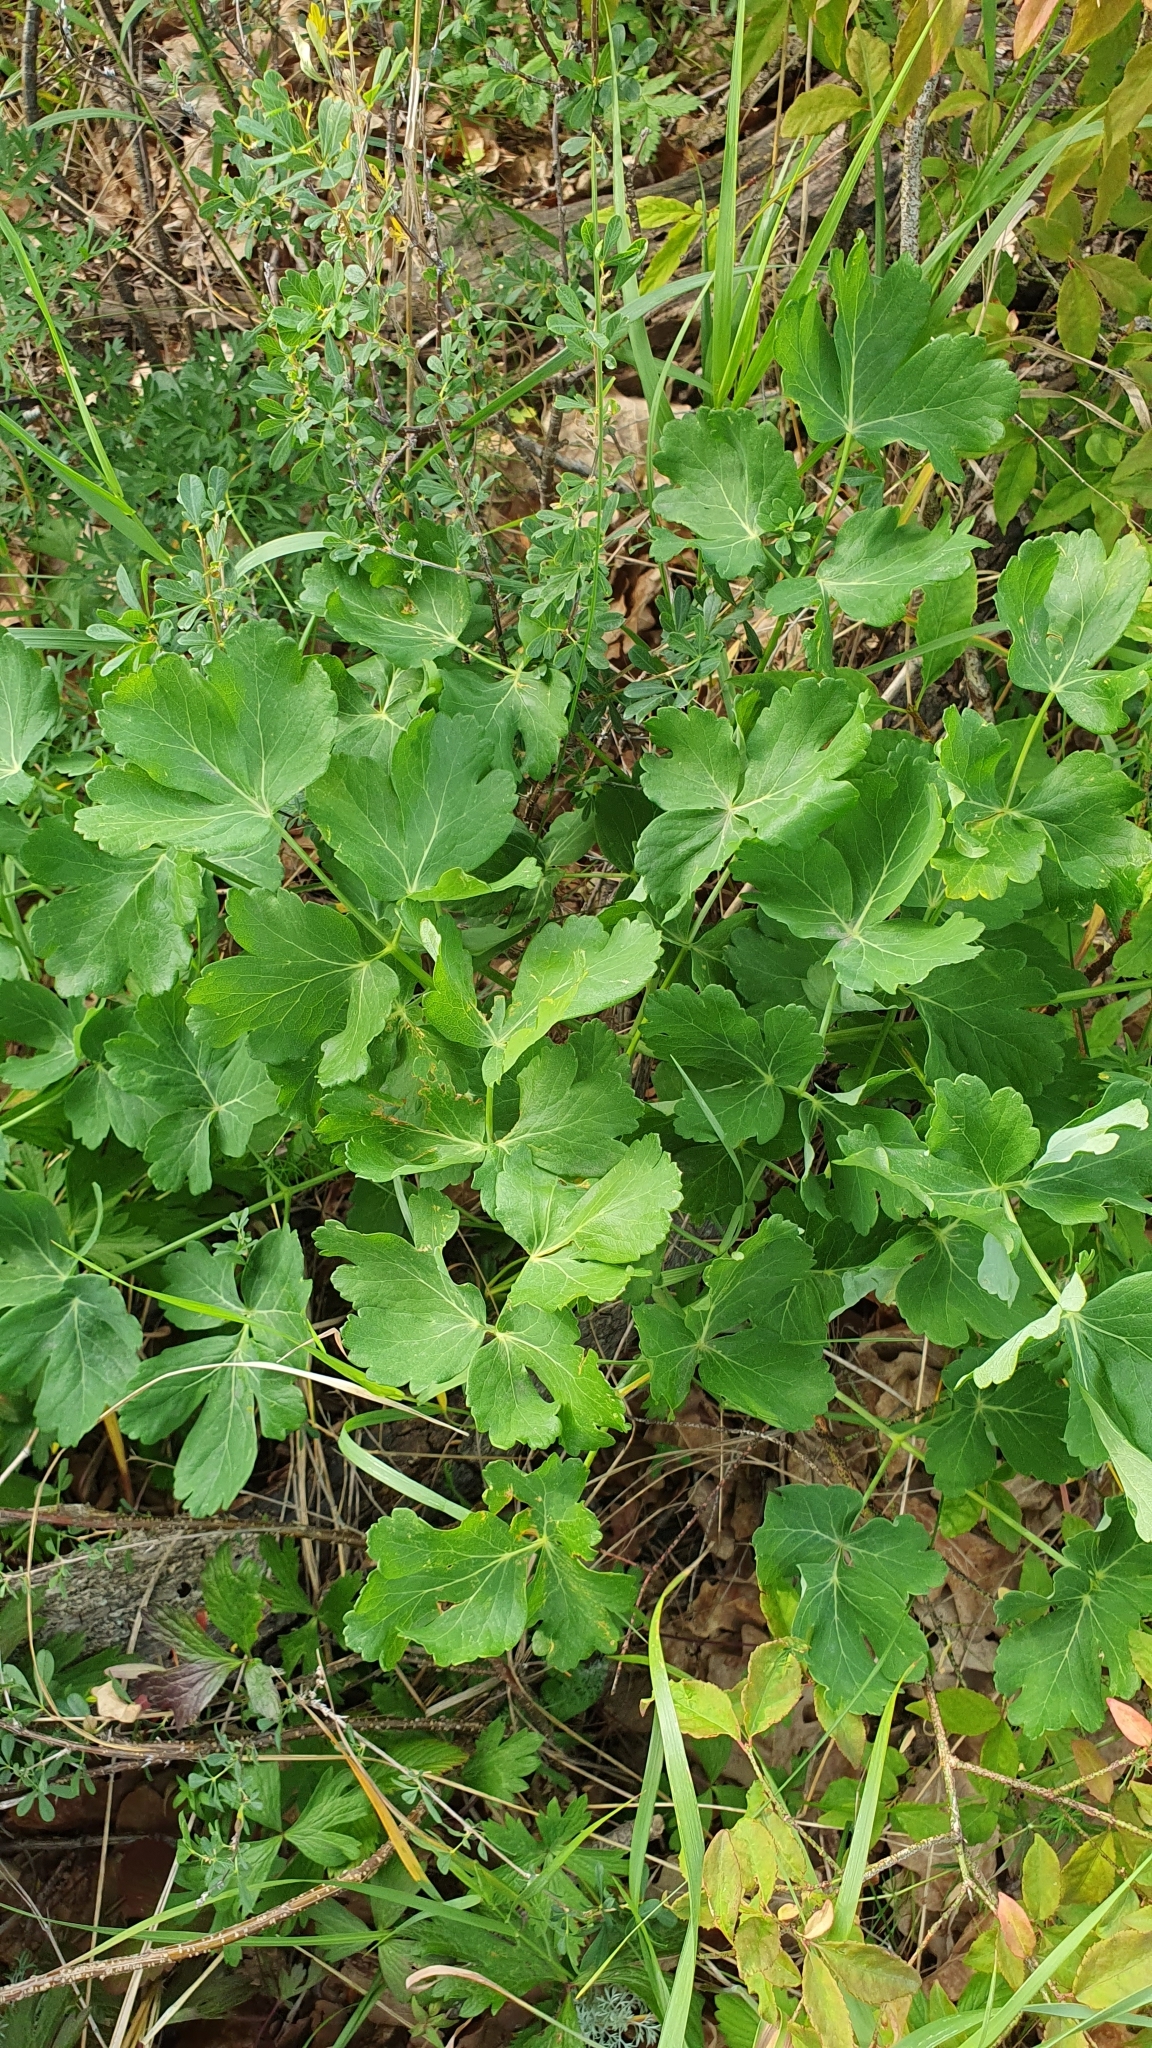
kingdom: Plantae
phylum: Tracheophyta
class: Magnoliopsida
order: Apiales
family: Apiaceae
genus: Laser
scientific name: Laser trilobum
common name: Laser
